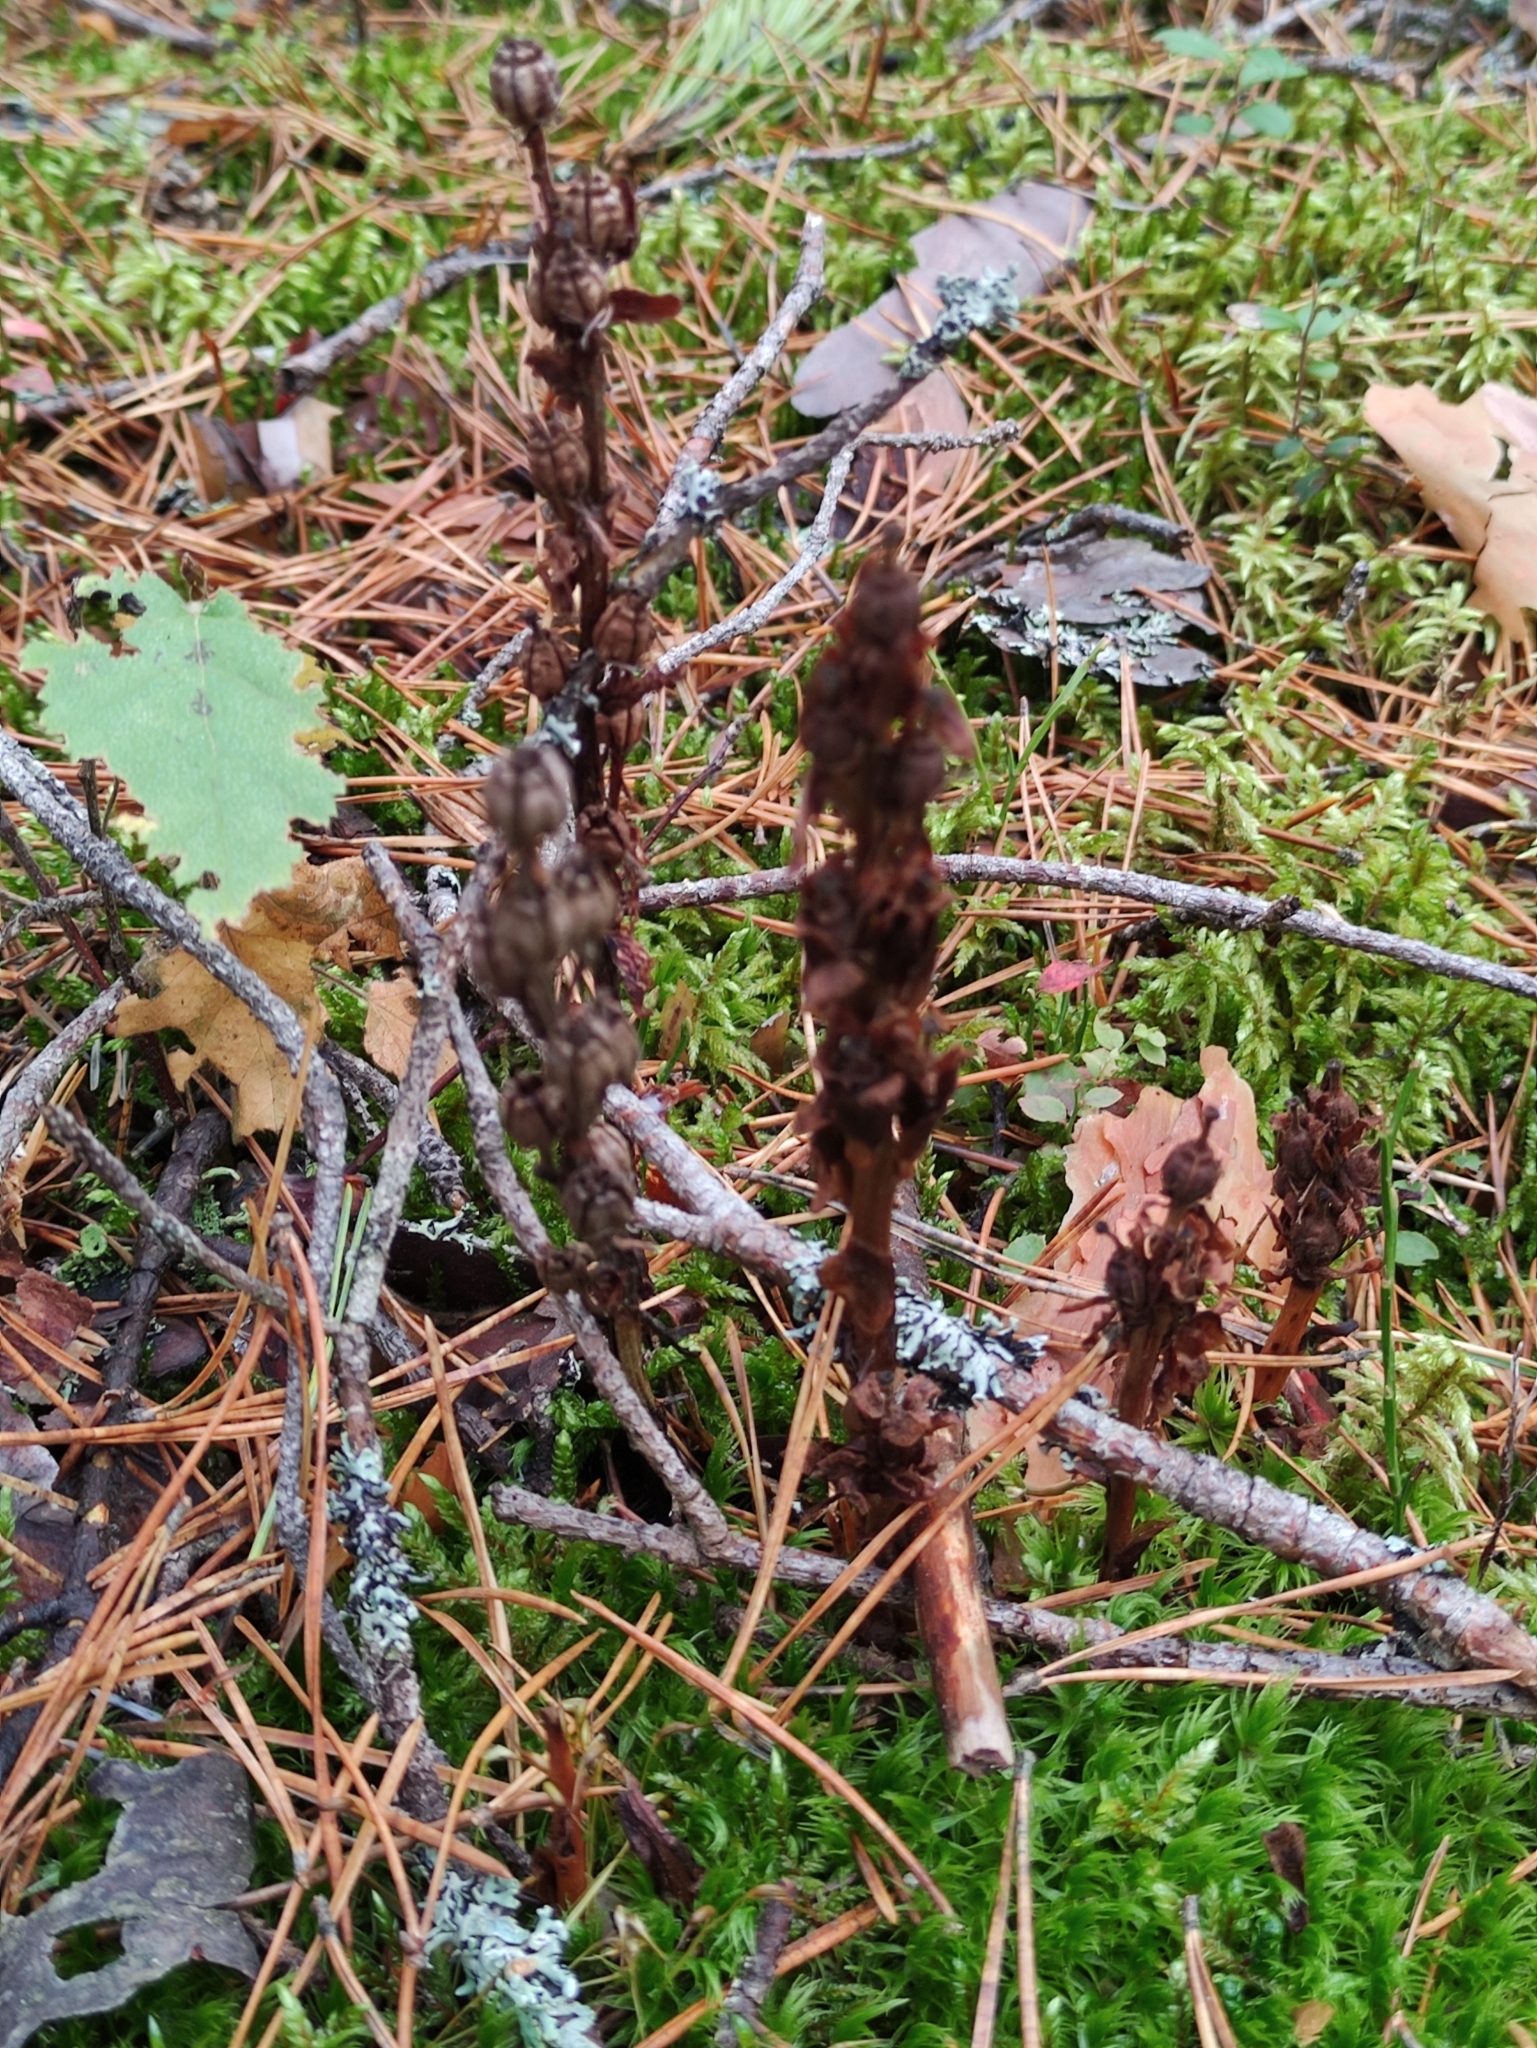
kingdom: Plantae
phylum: Tracheophyta
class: Magnoliopsida
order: Ericales
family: Ericaceae
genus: Hypopitys
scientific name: Hypopitys monotropa
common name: Yellow bird's-nest
